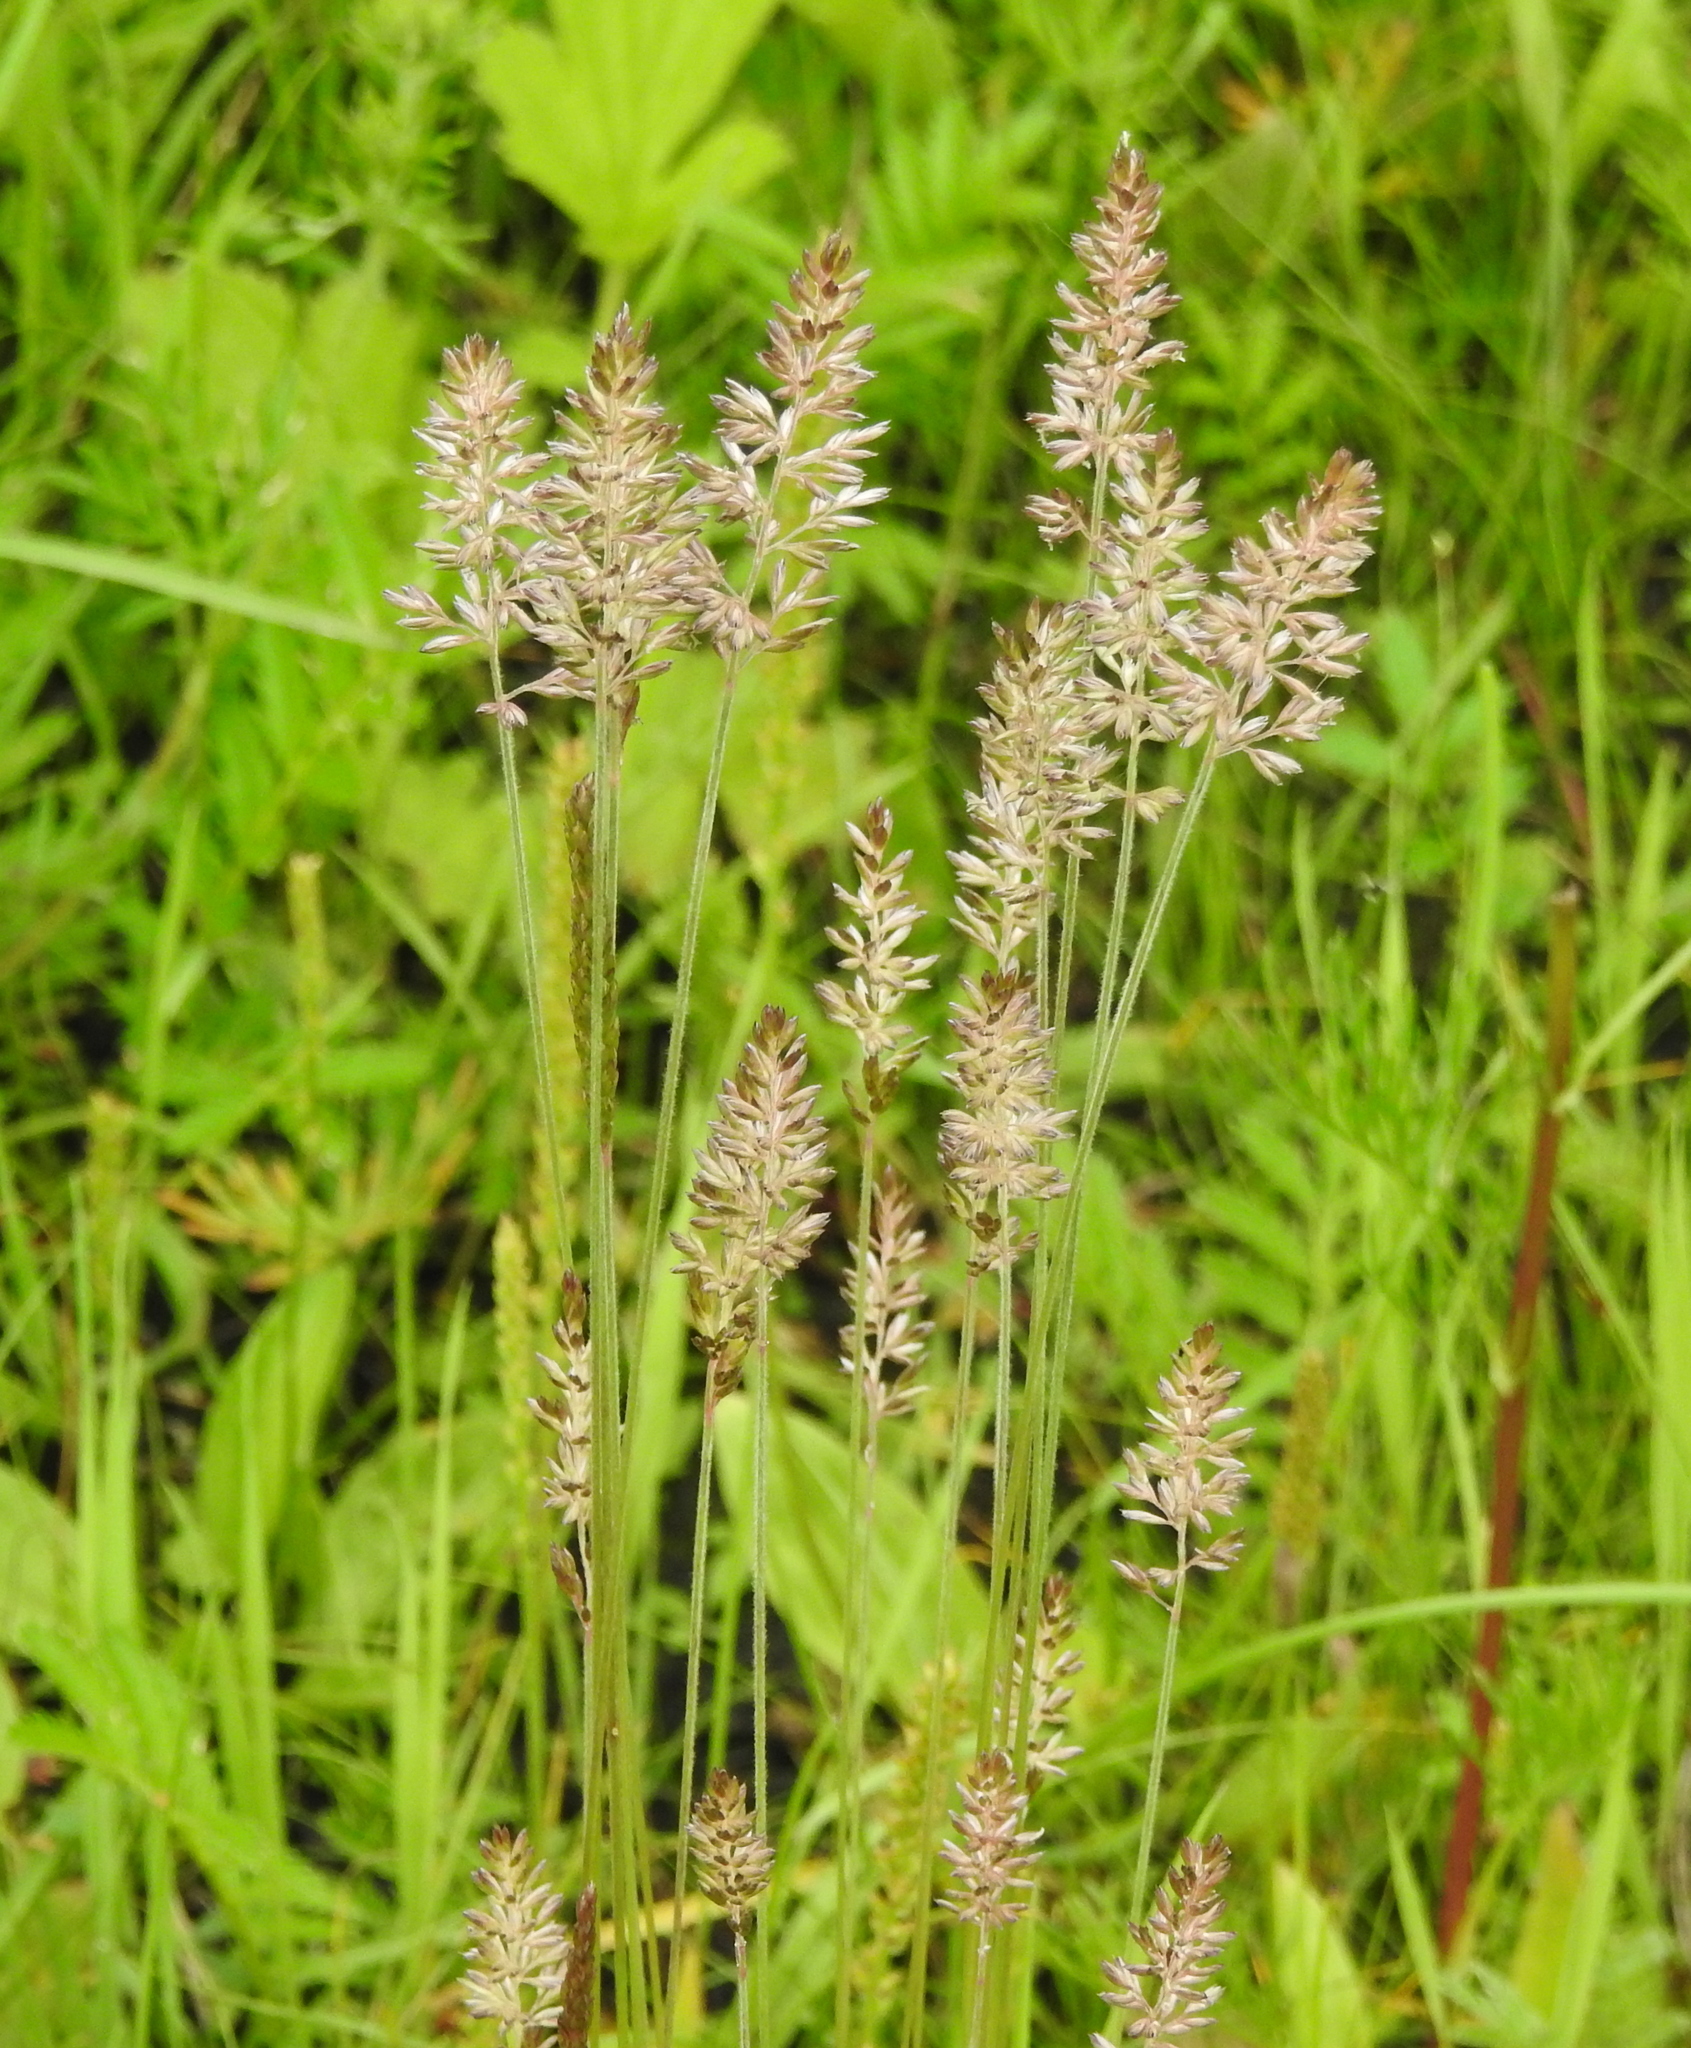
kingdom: Plantae
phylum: Tracheophyta
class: Liliopsida
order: Poales
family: Poaceae
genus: Koeleria
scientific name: Koeleria macrantha
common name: Crested hair-grass
